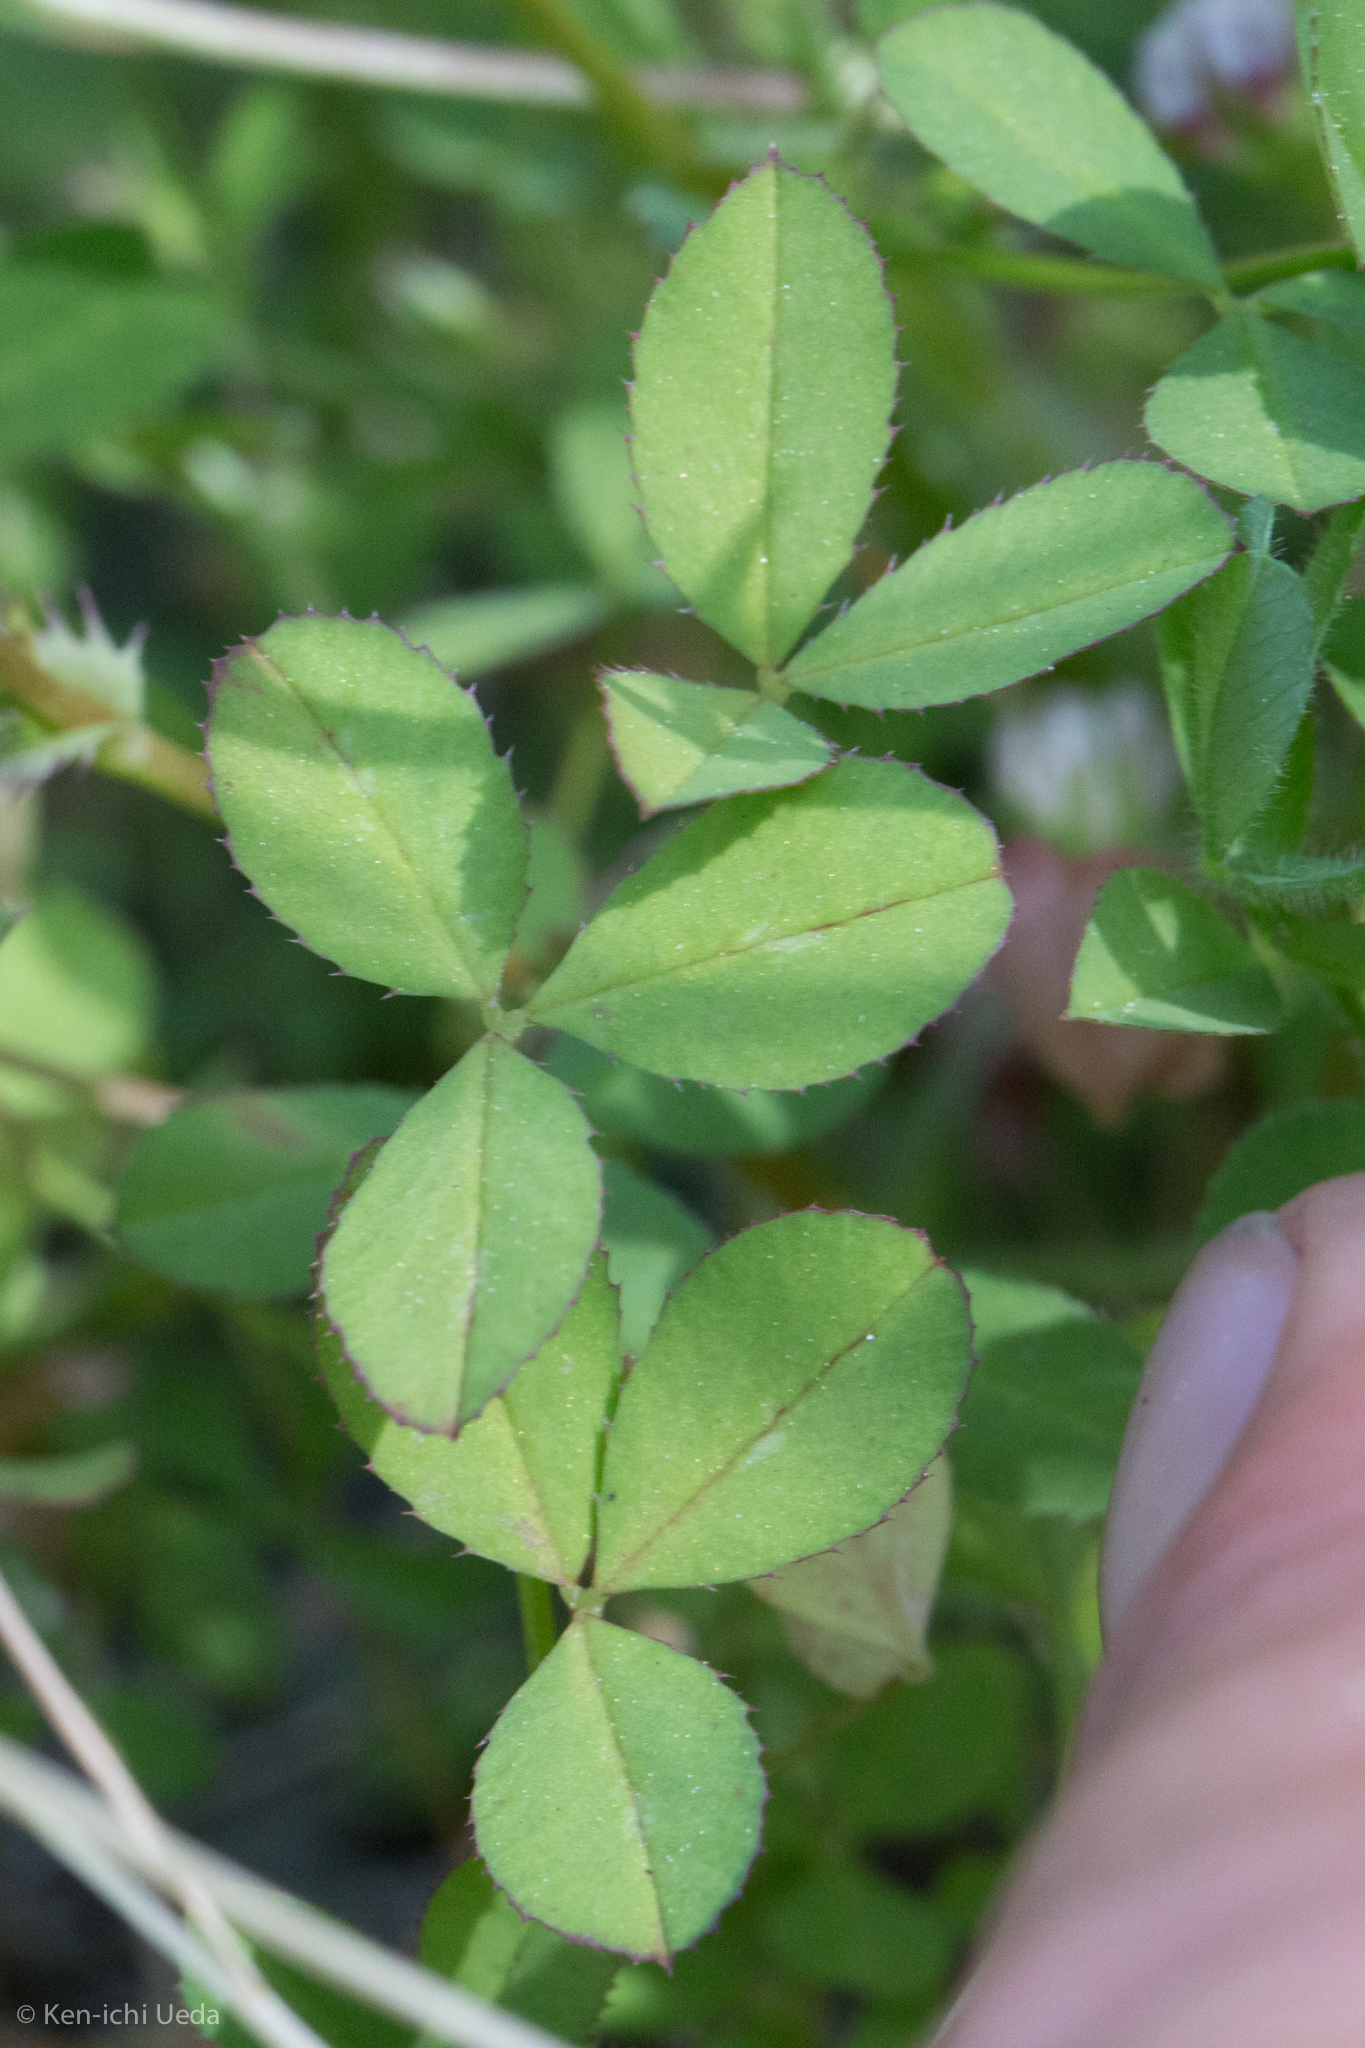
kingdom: Plantae
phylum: Tracheophyta
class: Magnoliopsida
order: Fabales
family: Fabaceae
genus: Trifolium
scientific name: Trifolium variegatum
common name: Whitetip clover
